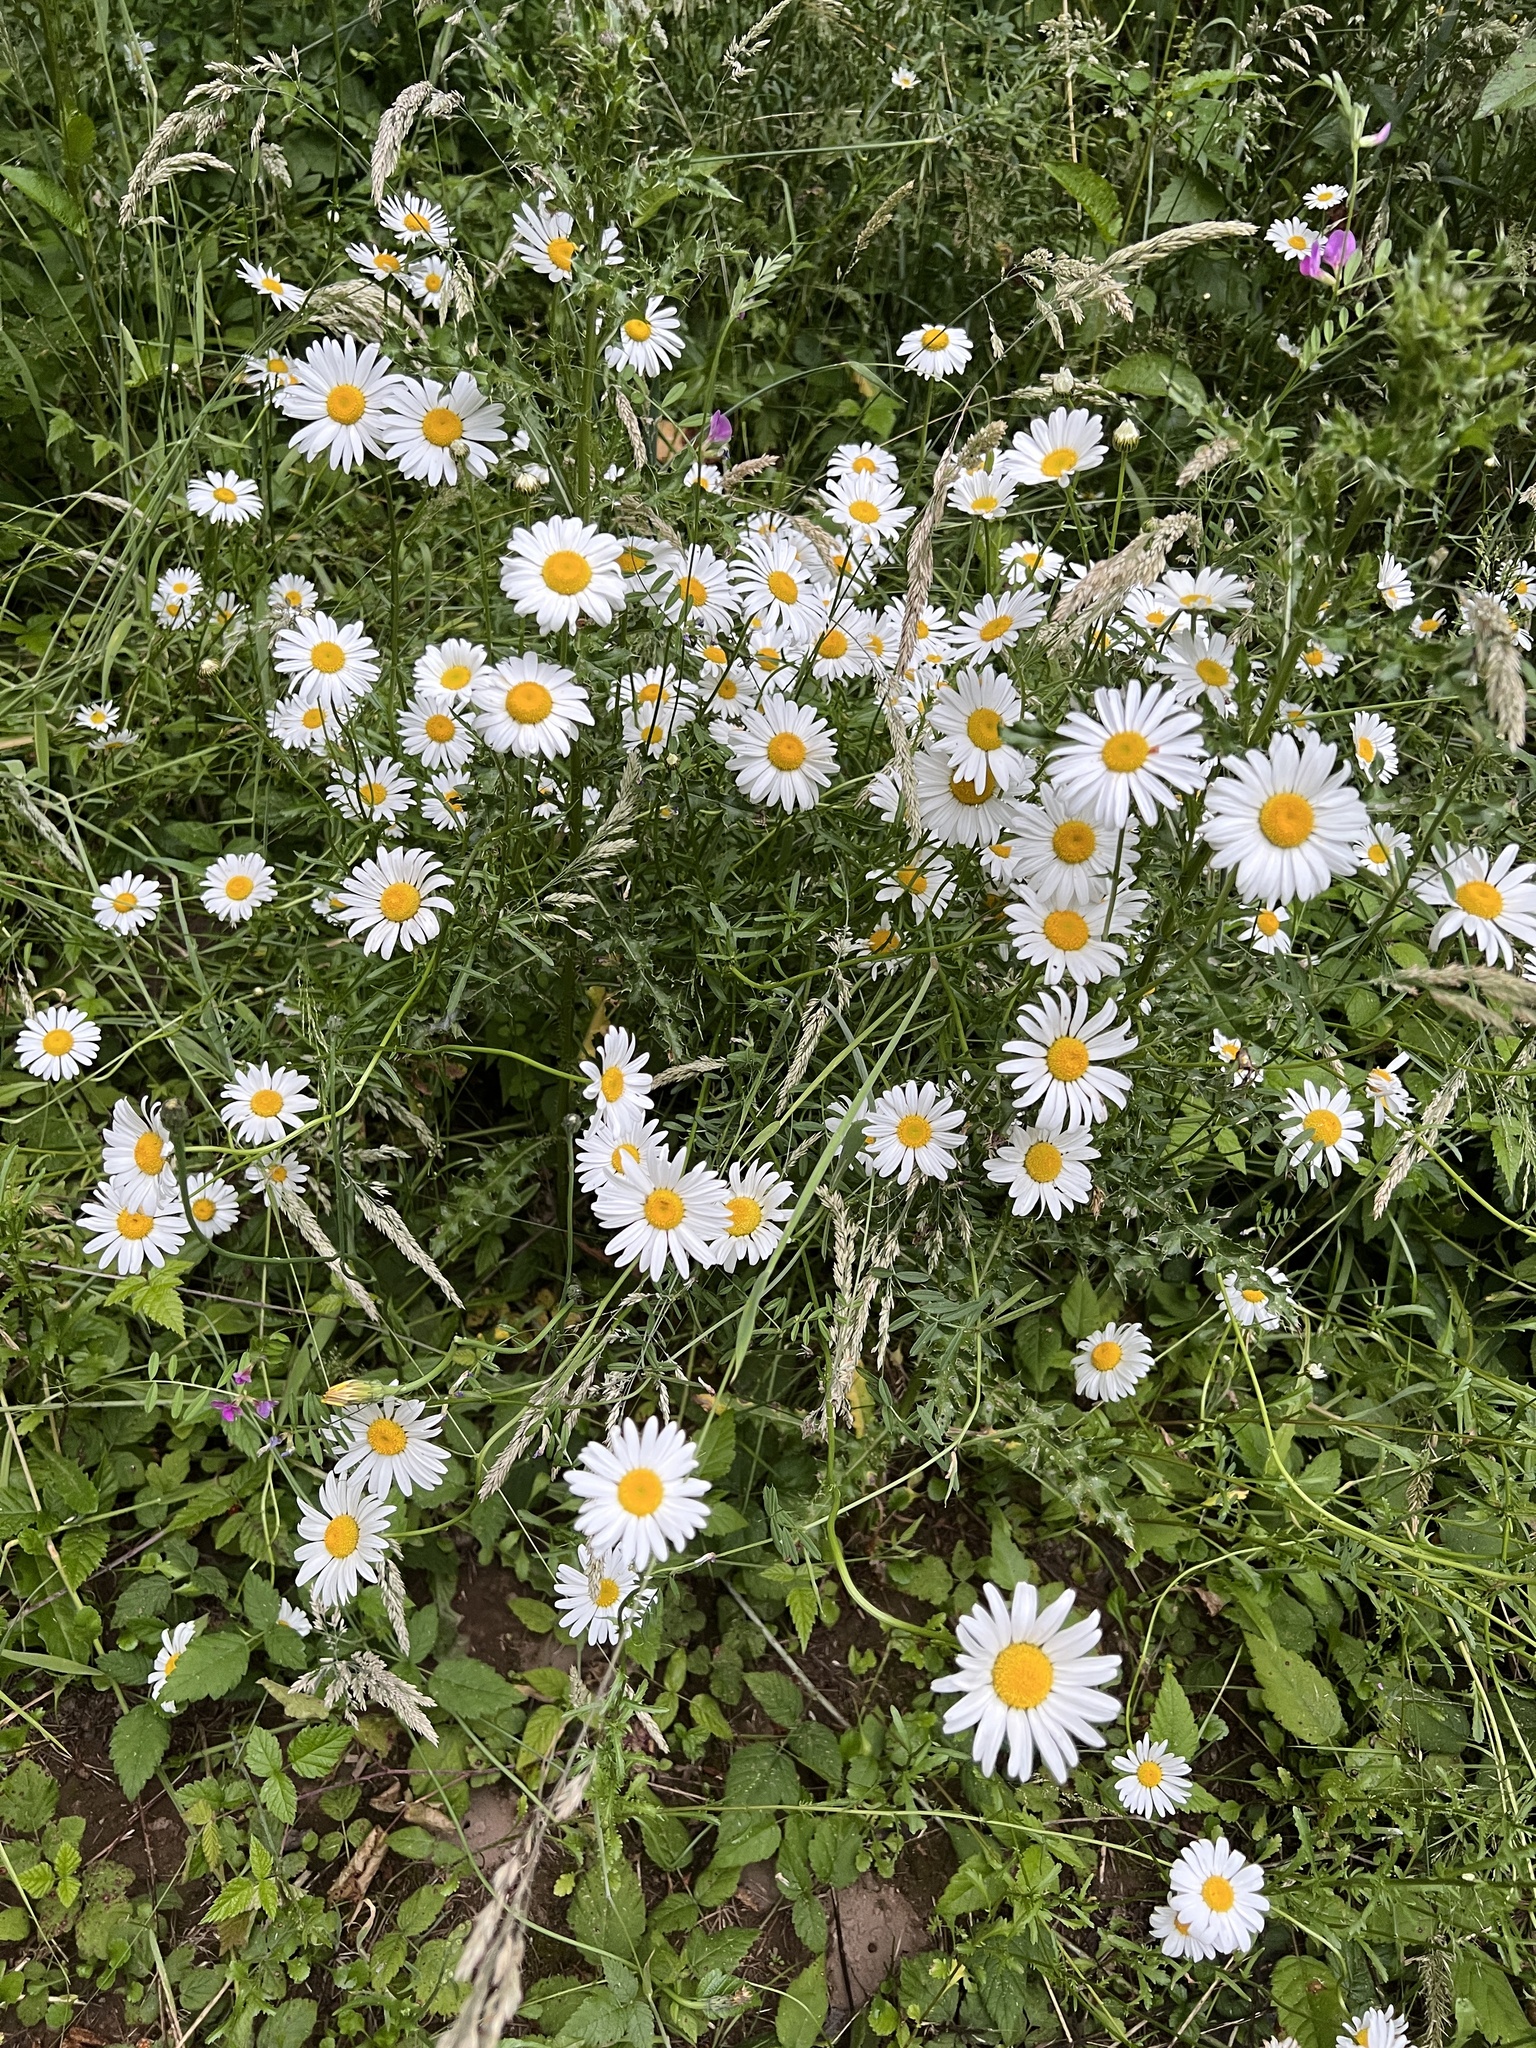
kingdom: Plantae
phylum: Tracheophyta
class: Magnoliopsida
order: Asterales
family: Asteraceae
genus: Leucanthemum
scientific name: Leucanthemum vulgare
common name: Oxeye daisy
